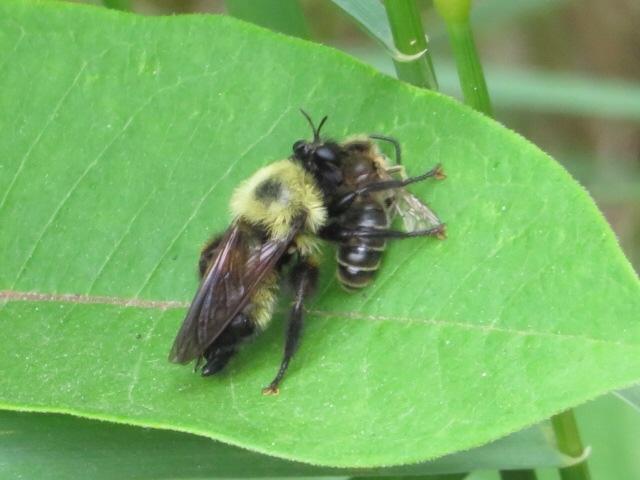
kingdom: Animalia
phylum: Arthropoda
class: Insecta
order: Diptera
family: Asilidae
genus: Laphria
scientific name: Laphria thoracica
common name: Bumble bee mimic robber fly
